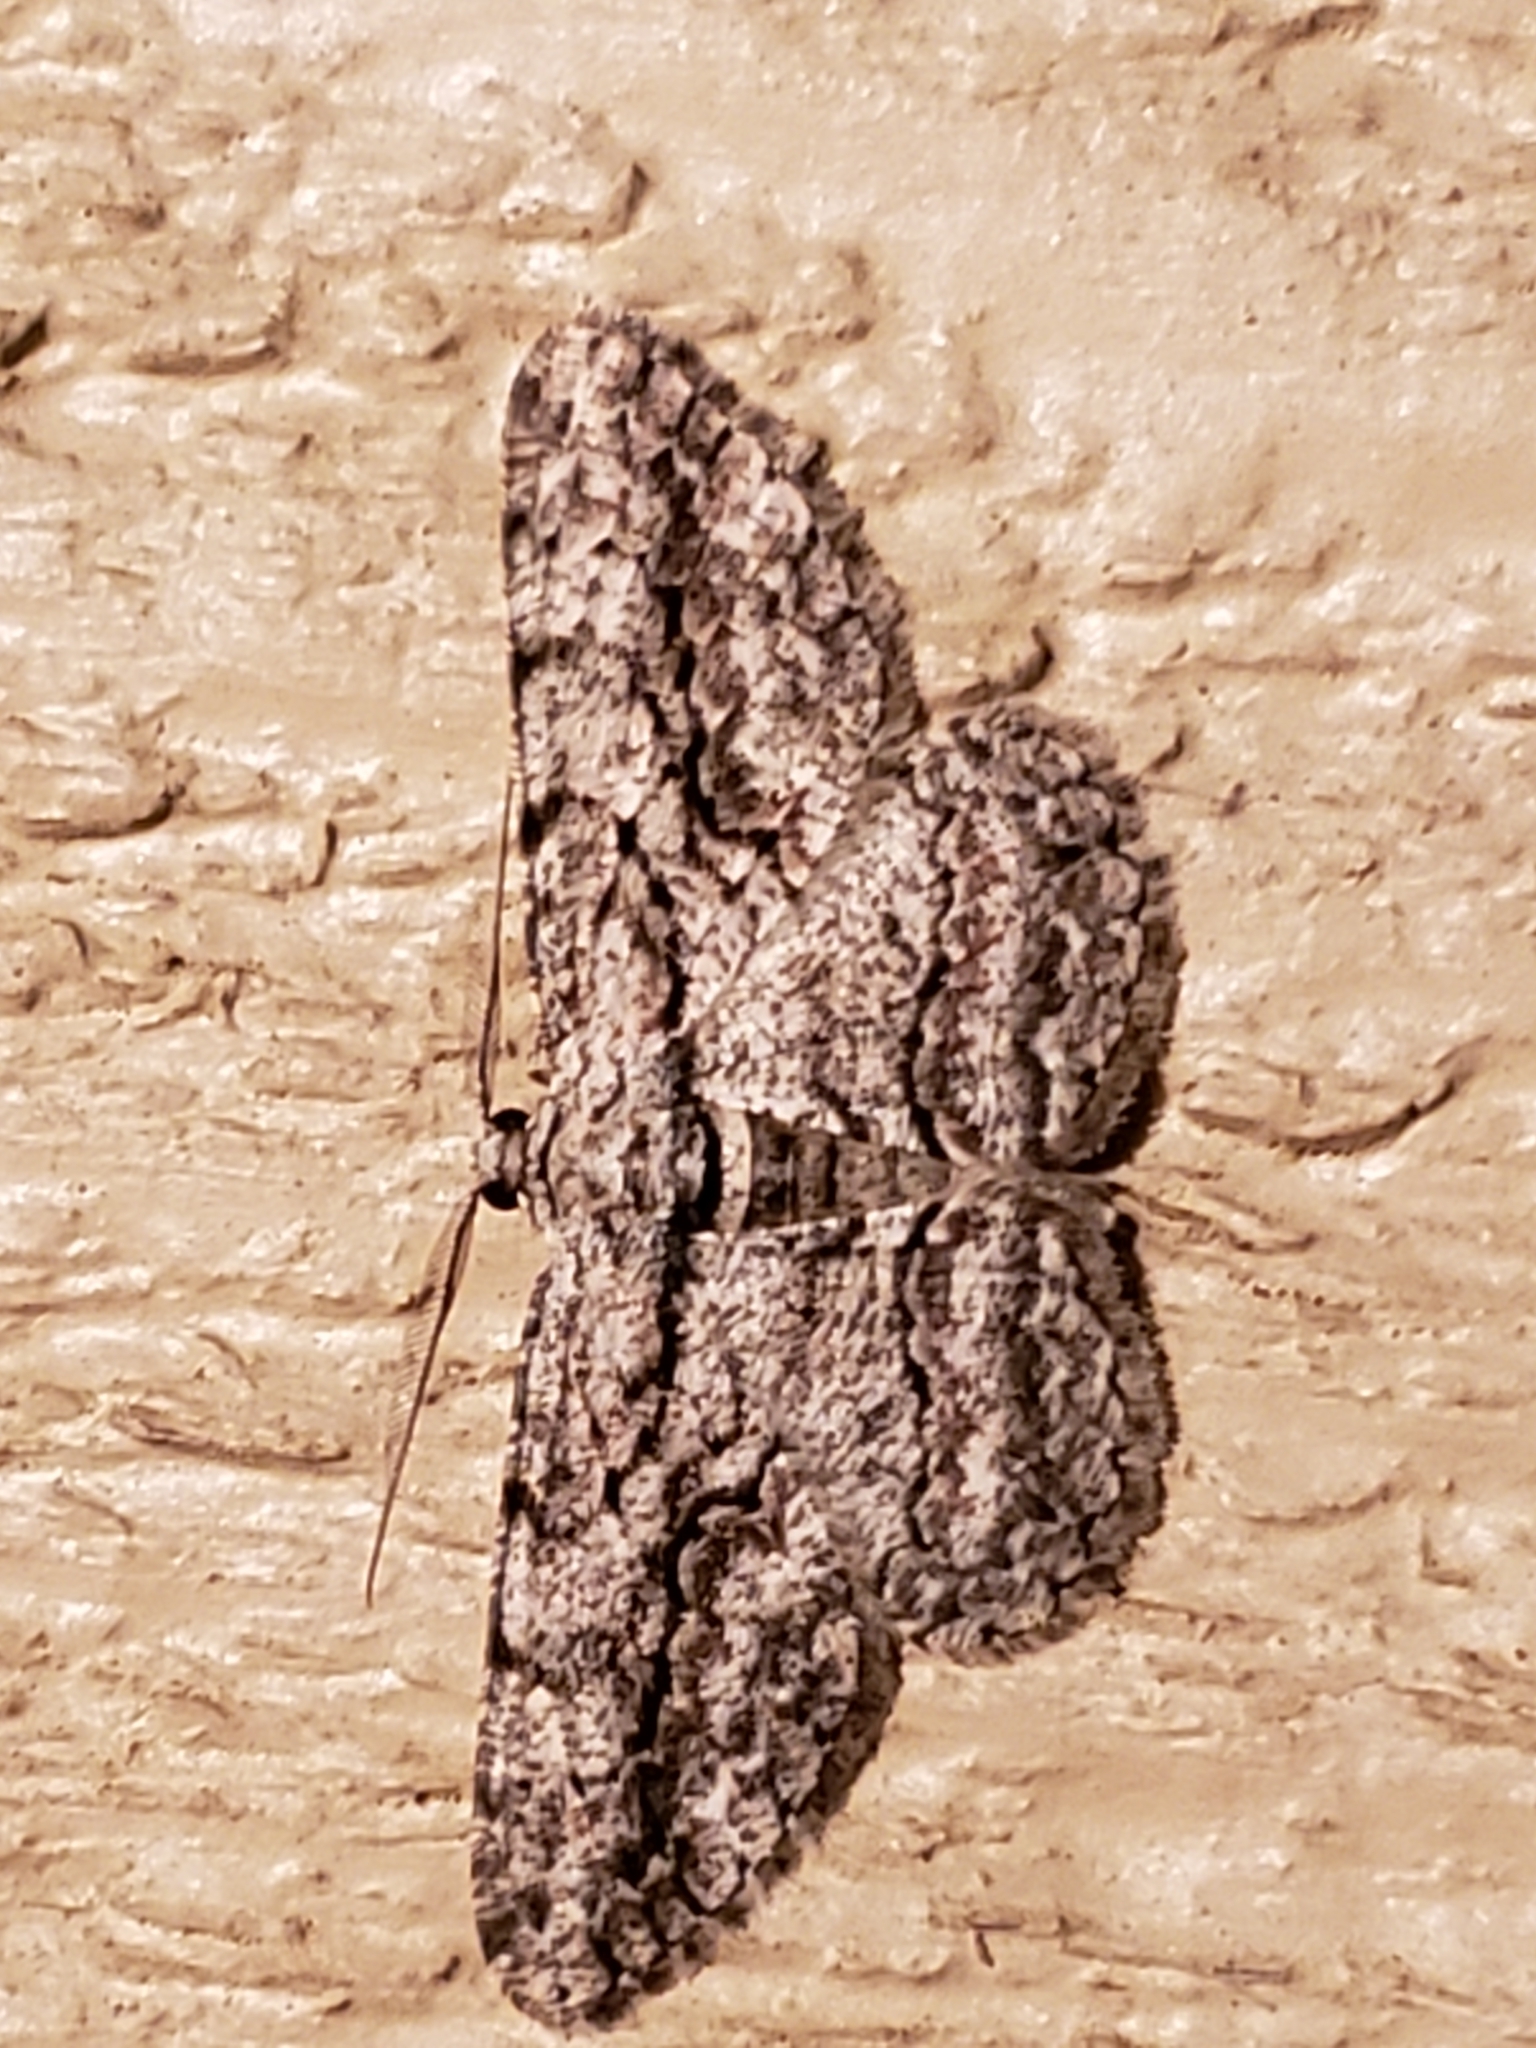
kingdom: Animalia
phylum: Arthropoda
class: Insecta
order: Lepidoptera
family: Geometridae
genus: Anavitrinella
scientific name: Anavitrinella pampinaria
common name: Common gray
